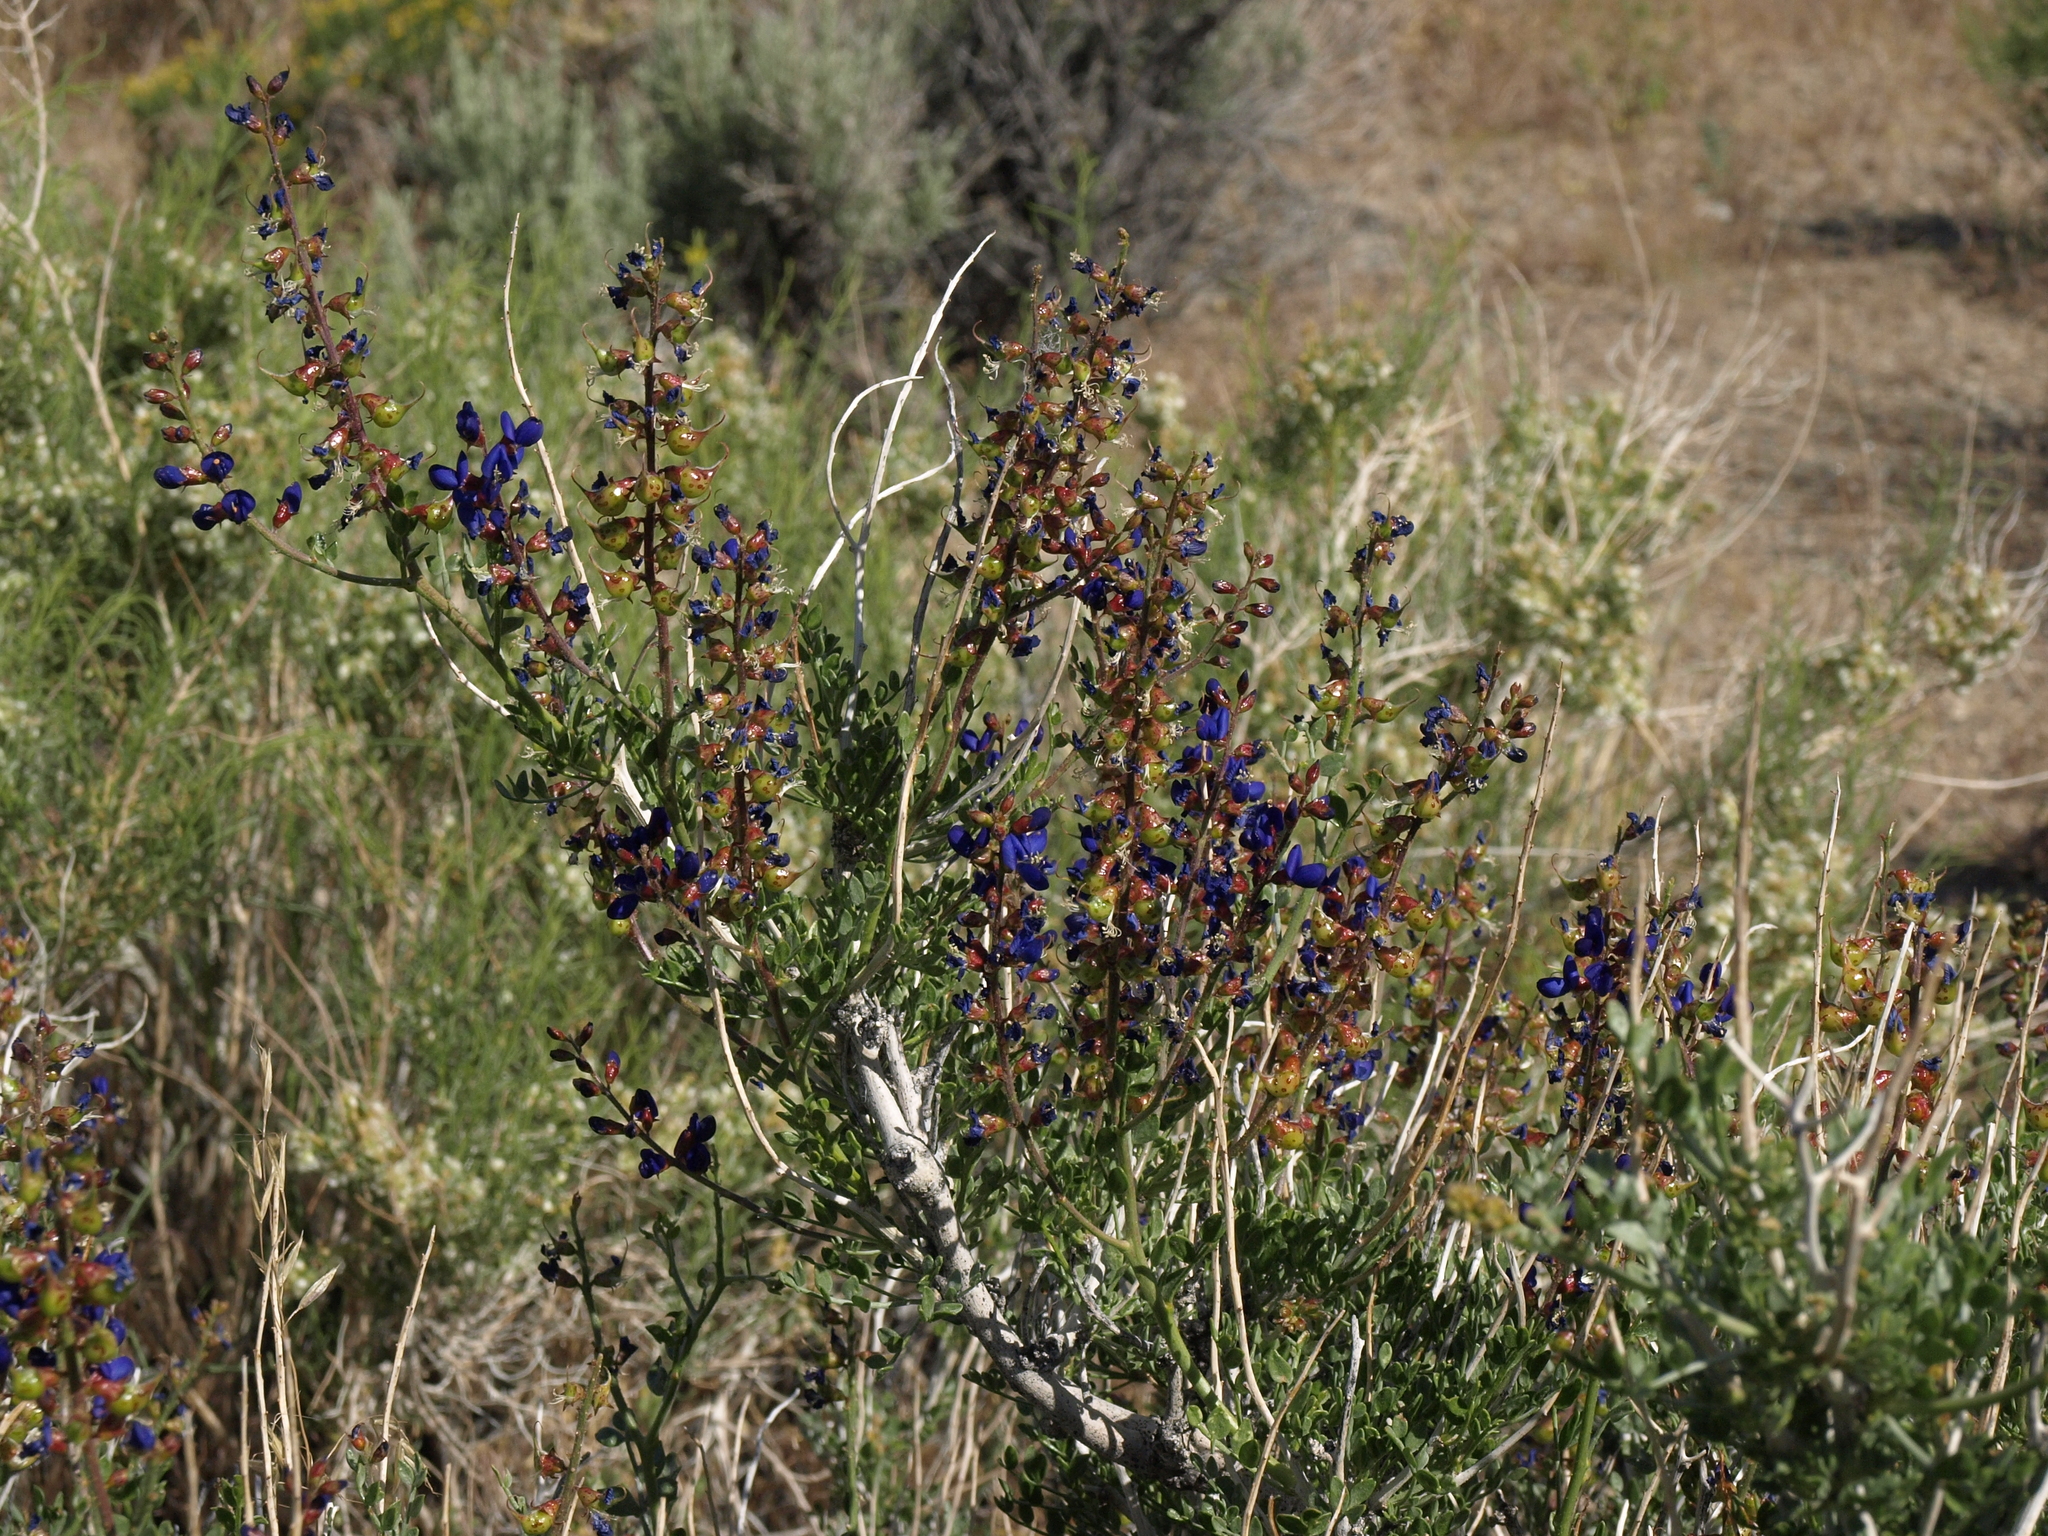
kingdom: Plantae
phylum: Tracheophyta
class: Magnoliopsida
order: Fabales
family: Fabaceae
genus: Psorothamnus
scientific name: Psorothamnus arborescens
